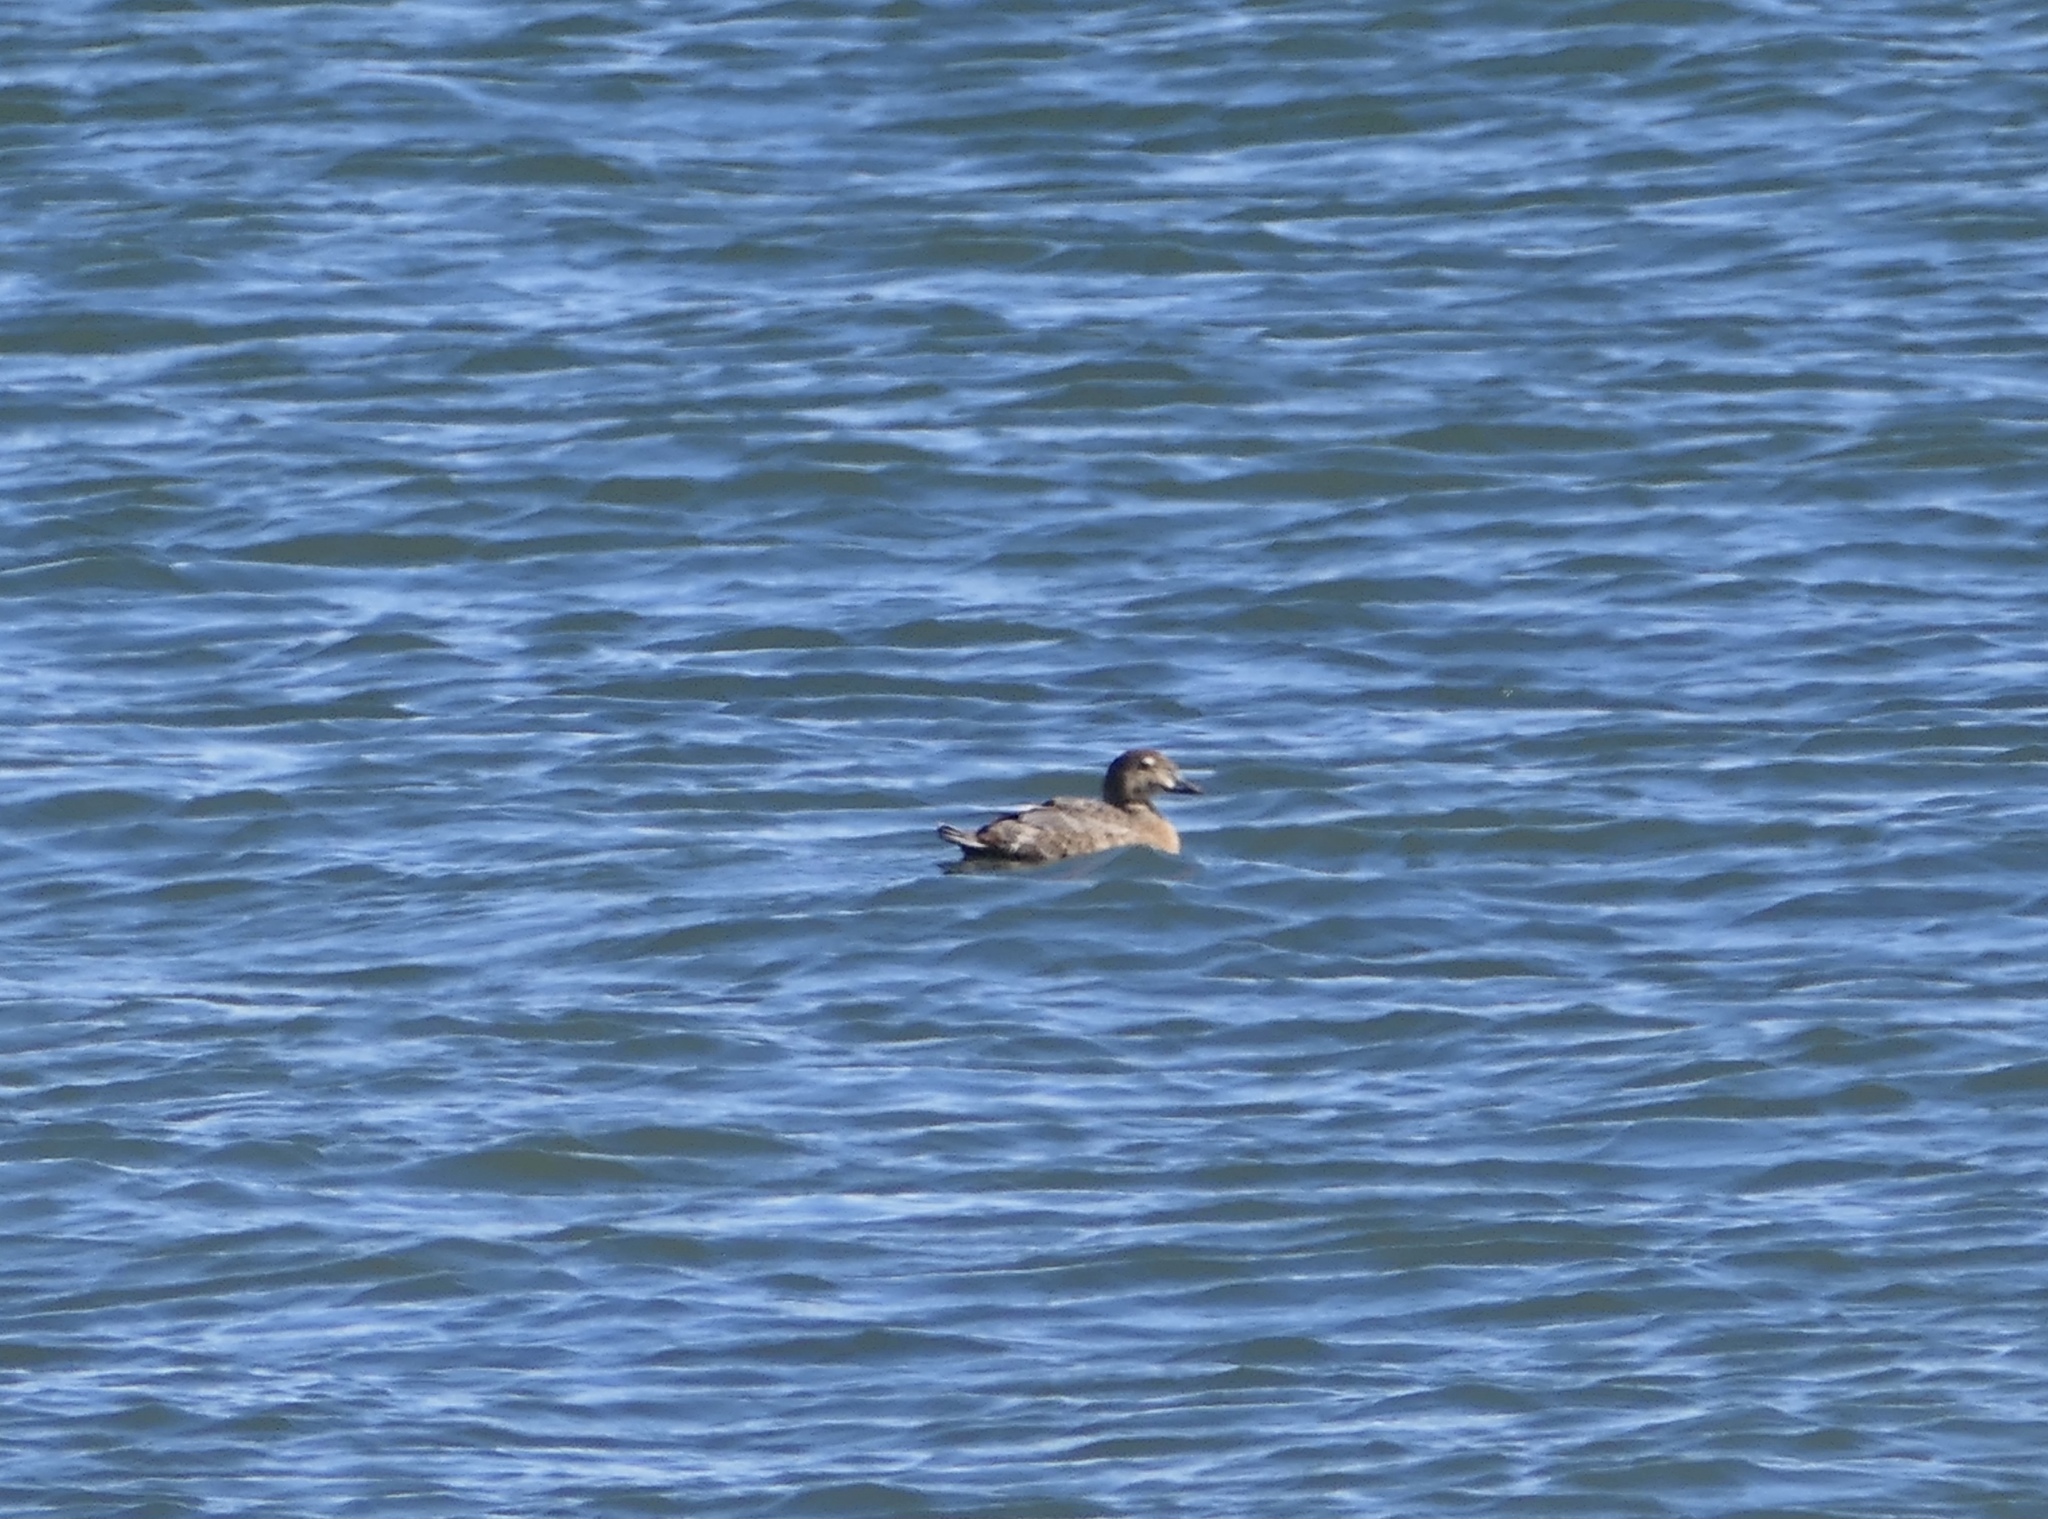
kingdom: Animalia
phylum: Chordata
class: Aves
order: Anseriformes
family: Anatidae
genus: Somateria
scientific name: Somateria spectabilis
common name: King eider
